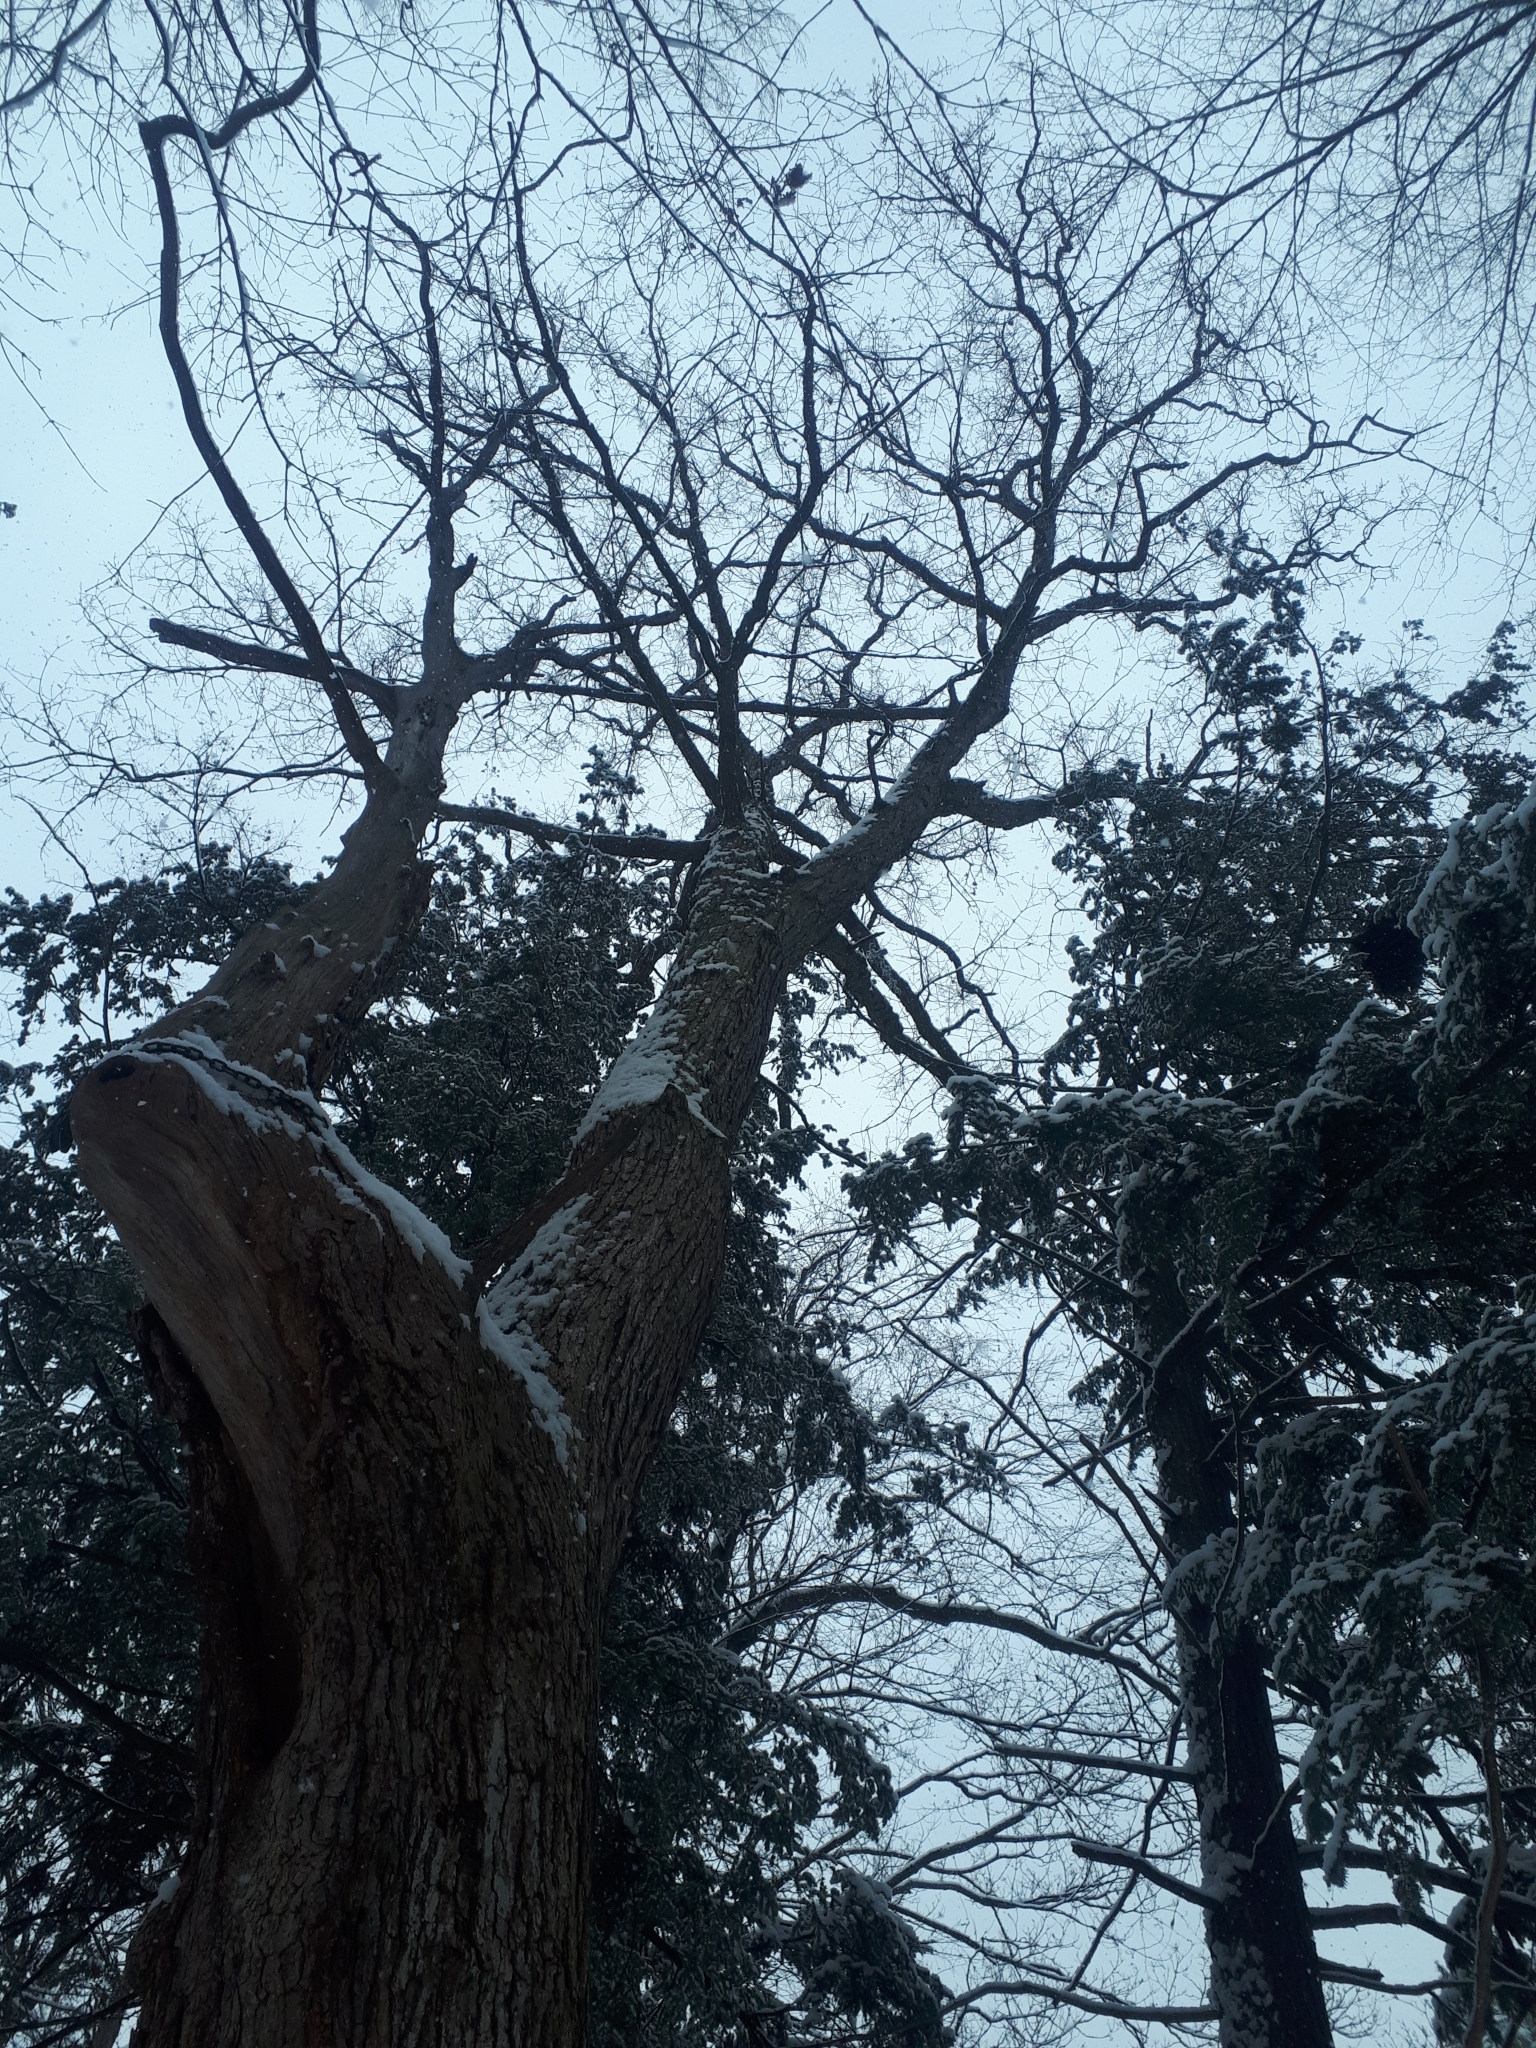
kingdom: Plantae
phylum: Tracheophyta
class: Magnoliopsida
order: Fagales
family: Fagaceae
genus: Quercus
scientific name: Quercus alba
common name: White oak
